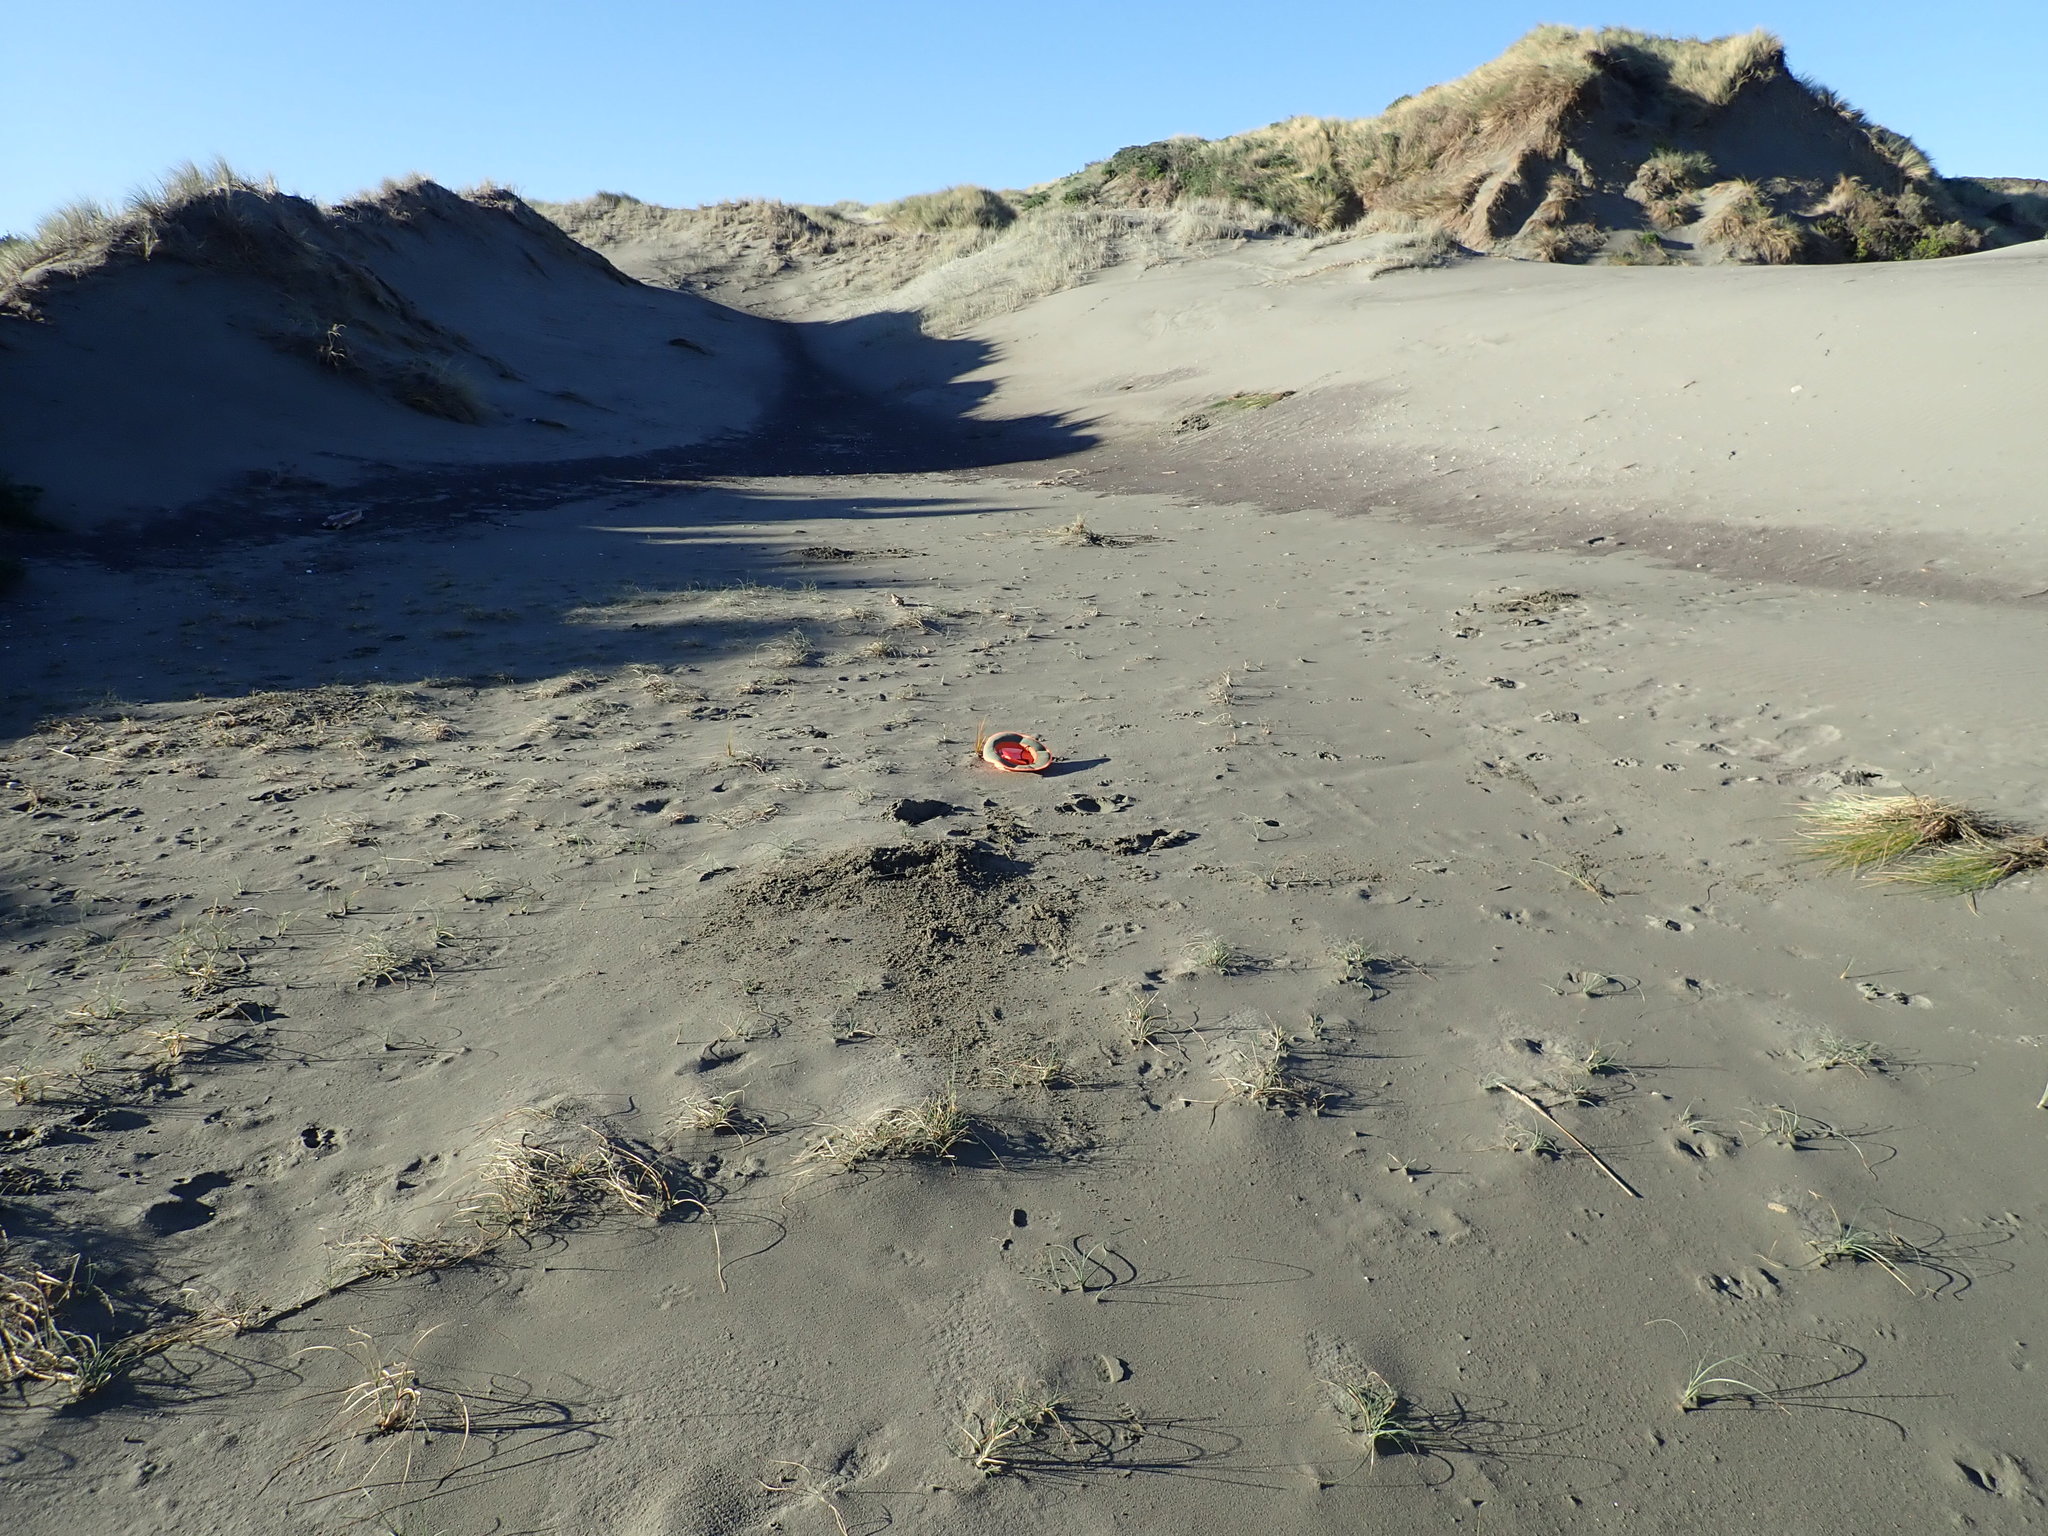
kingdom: Plantae
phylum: Tracheophyta
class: Liliopsida
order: Poales
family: Cyperaceae
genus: Ficinia
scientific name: Ficinia spiralis
